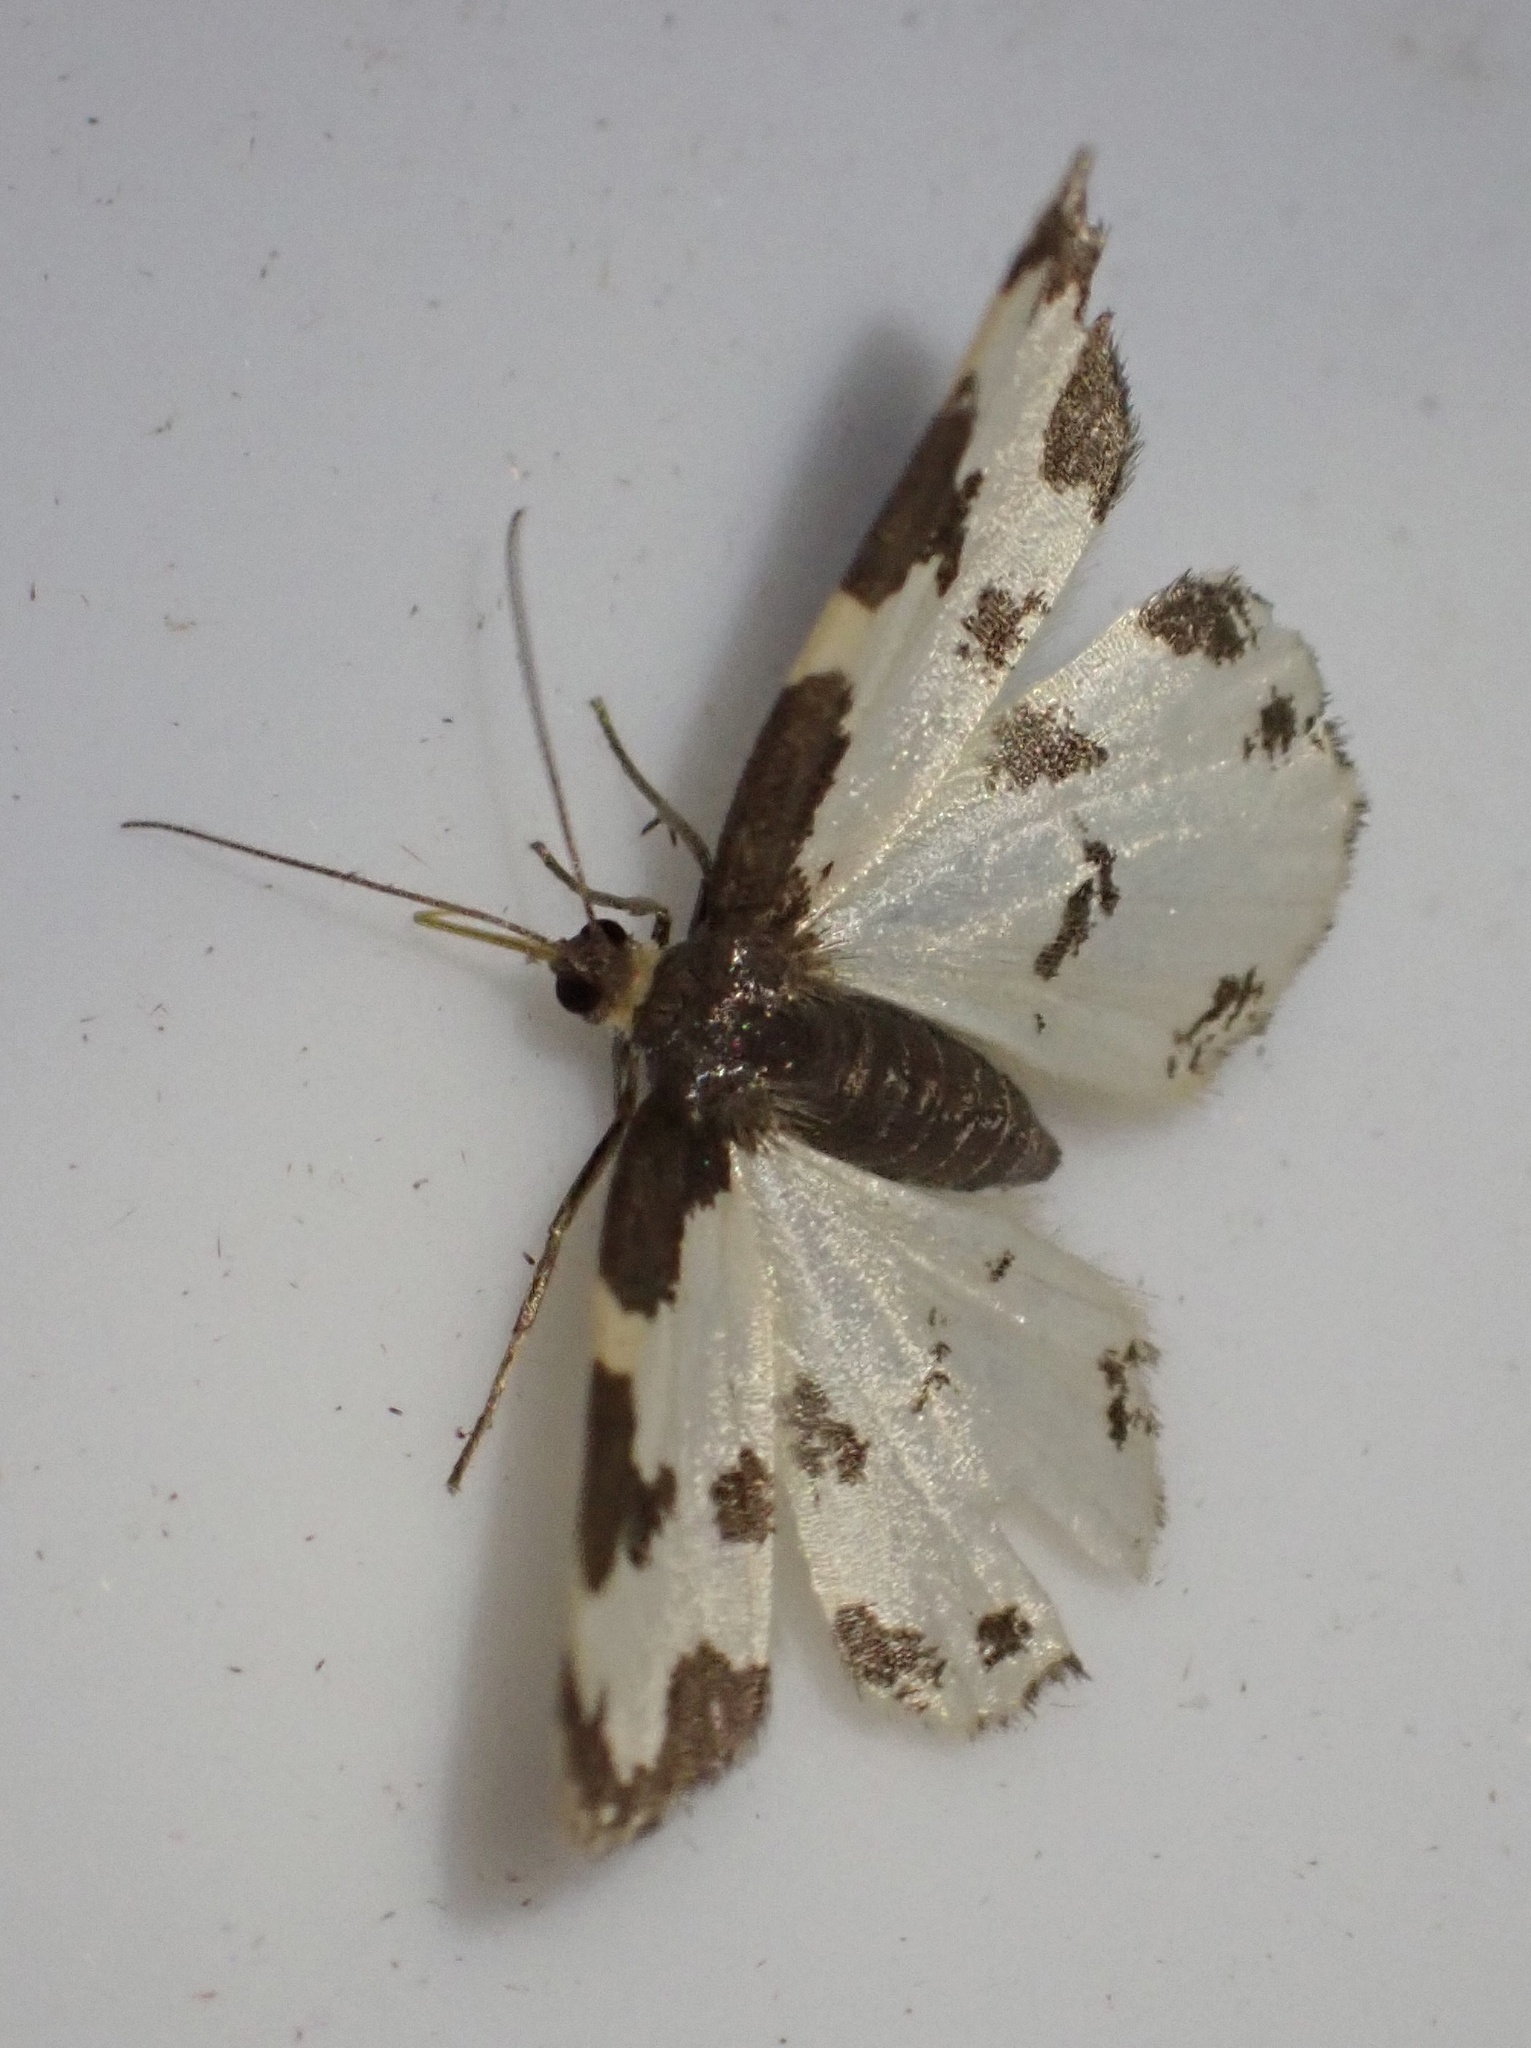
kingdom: Animalia
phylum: Arthropoda
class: Insecta
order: Lepidoptera
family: Geometridae
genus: Lomaspilis
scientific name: Lomaspilis marginata
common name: Clouded border
